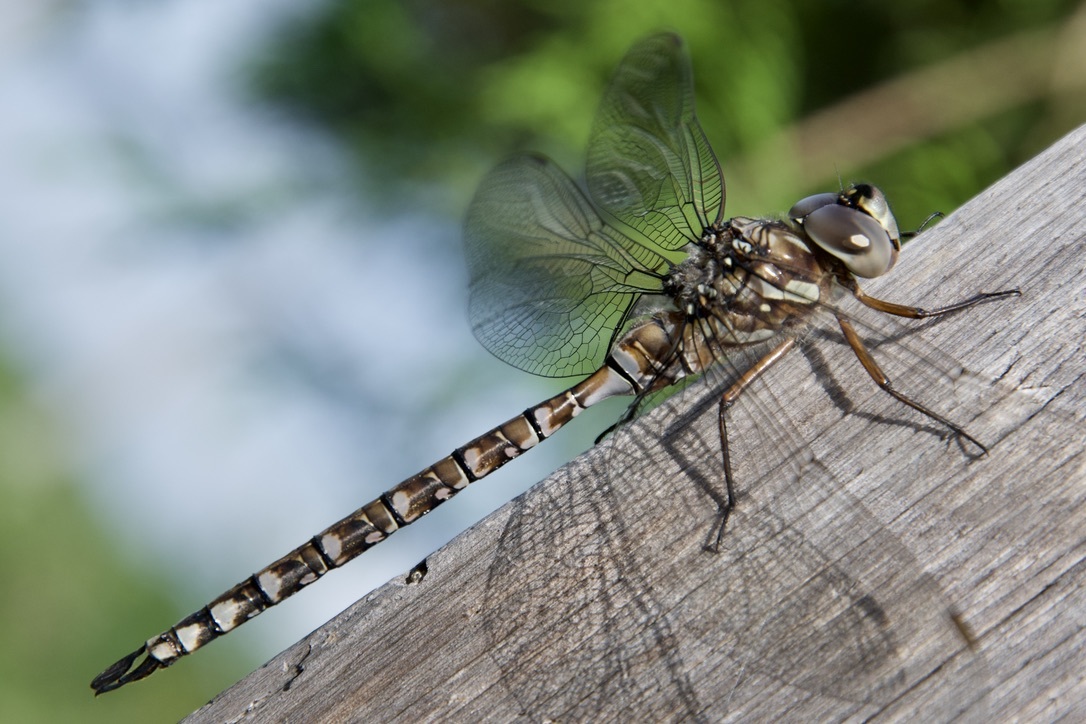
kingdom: Animalia
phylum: Arthropoda
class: Insecta
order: Odonata
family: Aeshnidae
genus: Aeshna
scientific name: Aeshna canadensis
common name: Canada darner
